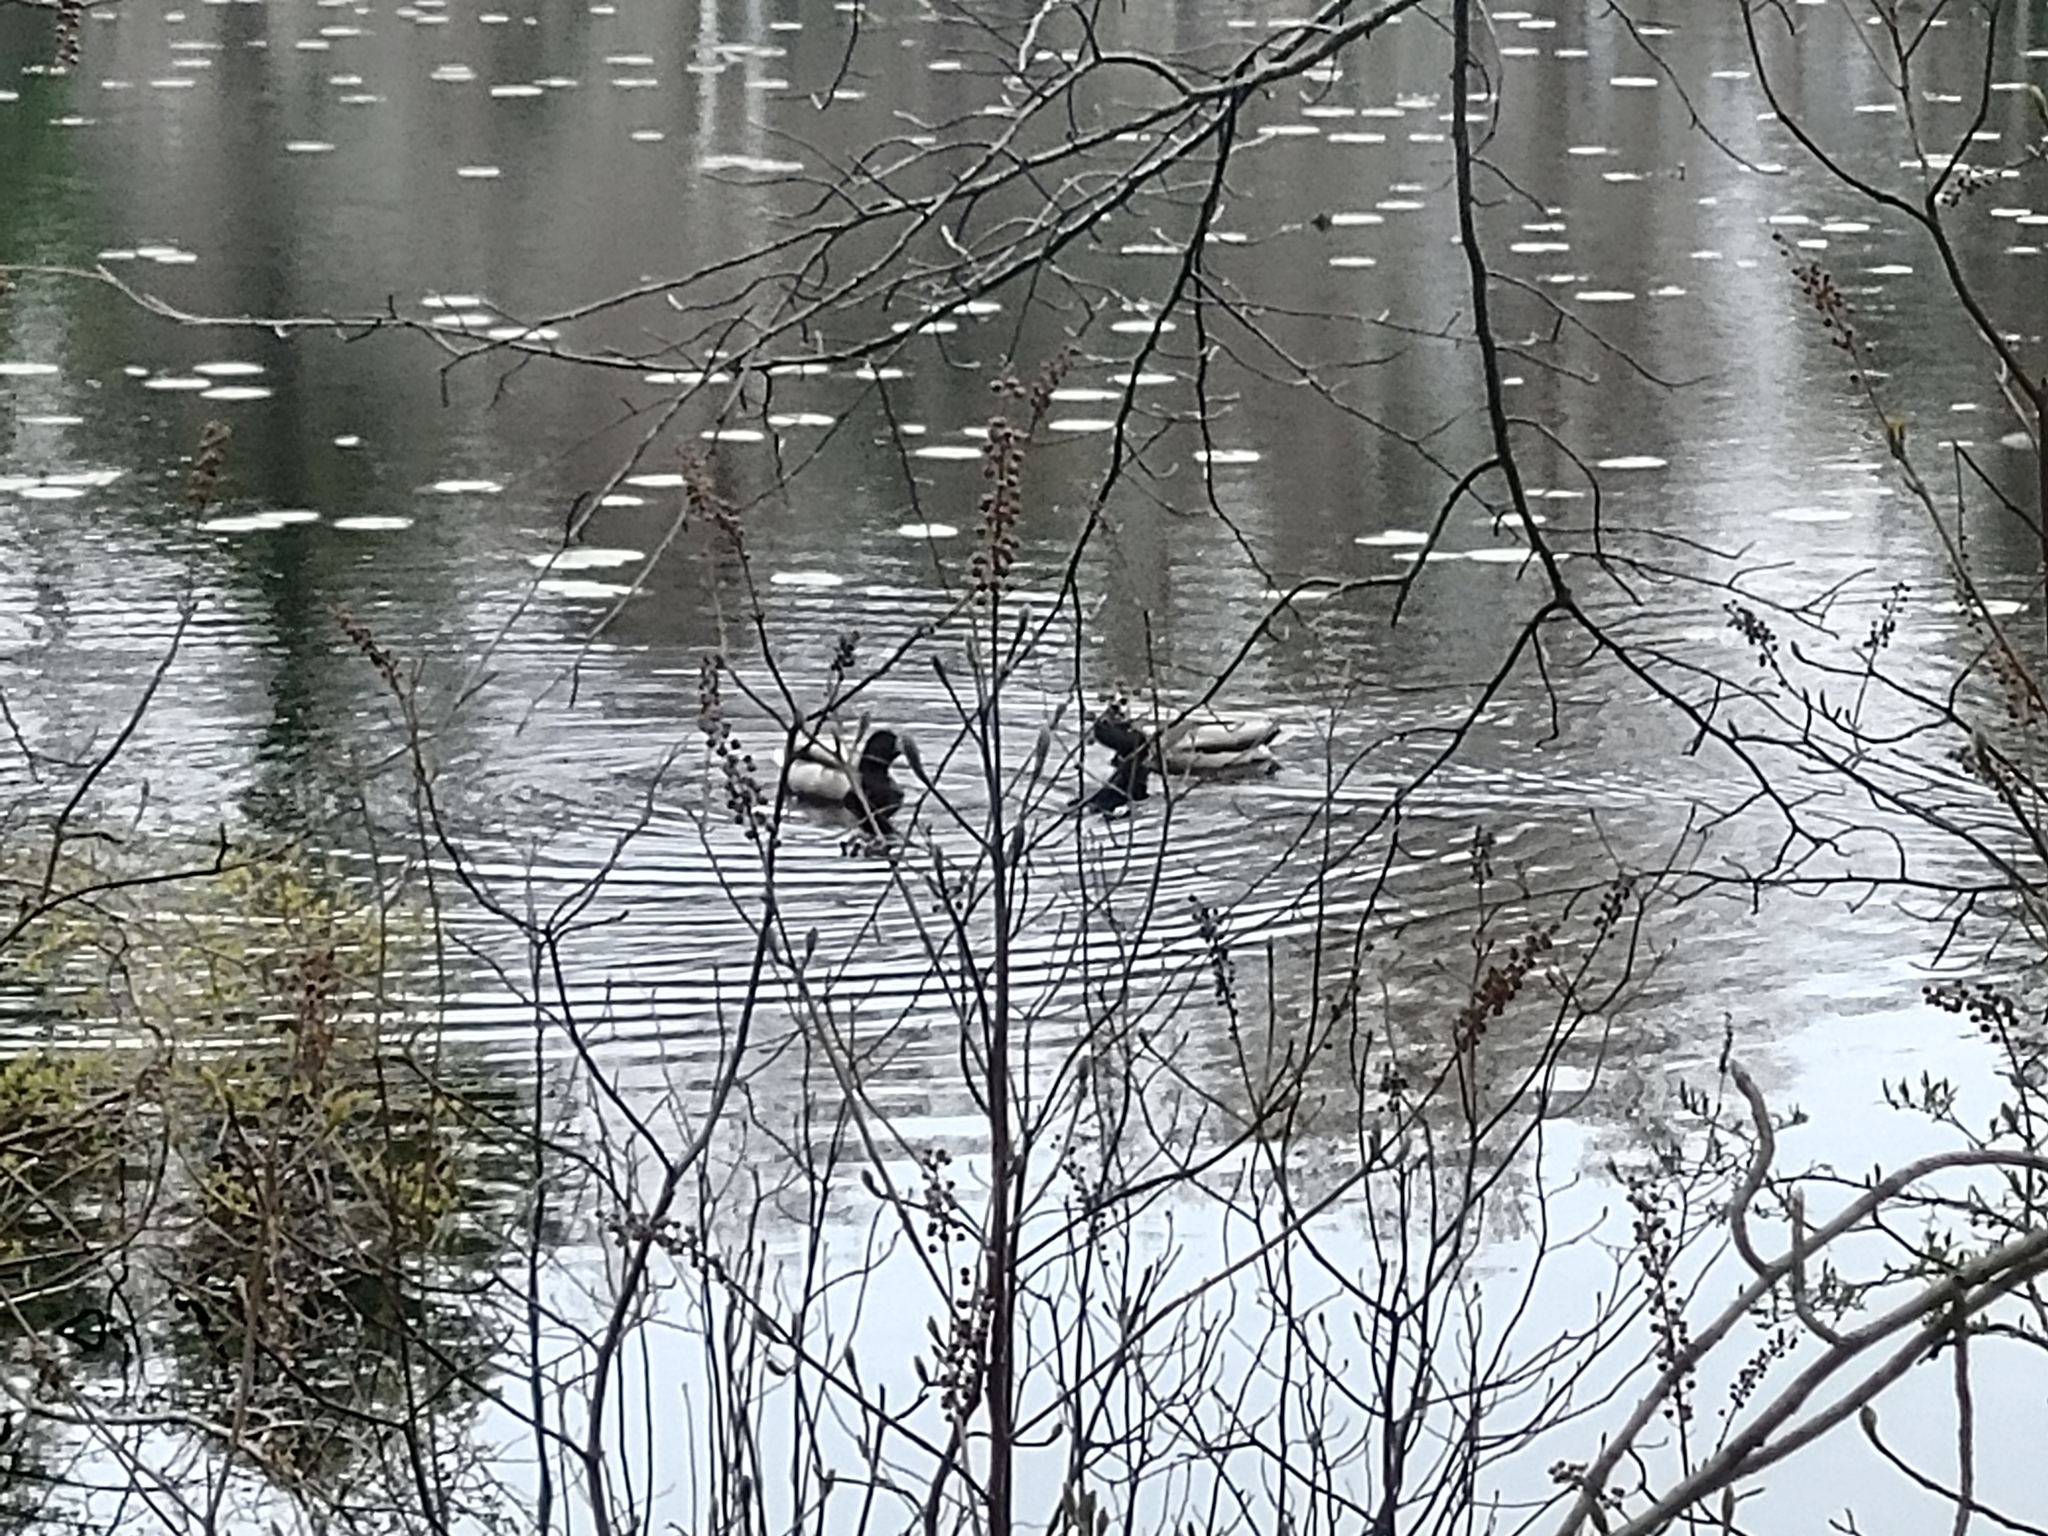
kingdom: Animalia
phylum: Chordata
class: Aves
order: Anseriformes
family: Anatidae
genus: Anas
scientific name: Anas platyrhynchos
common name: Mallard
